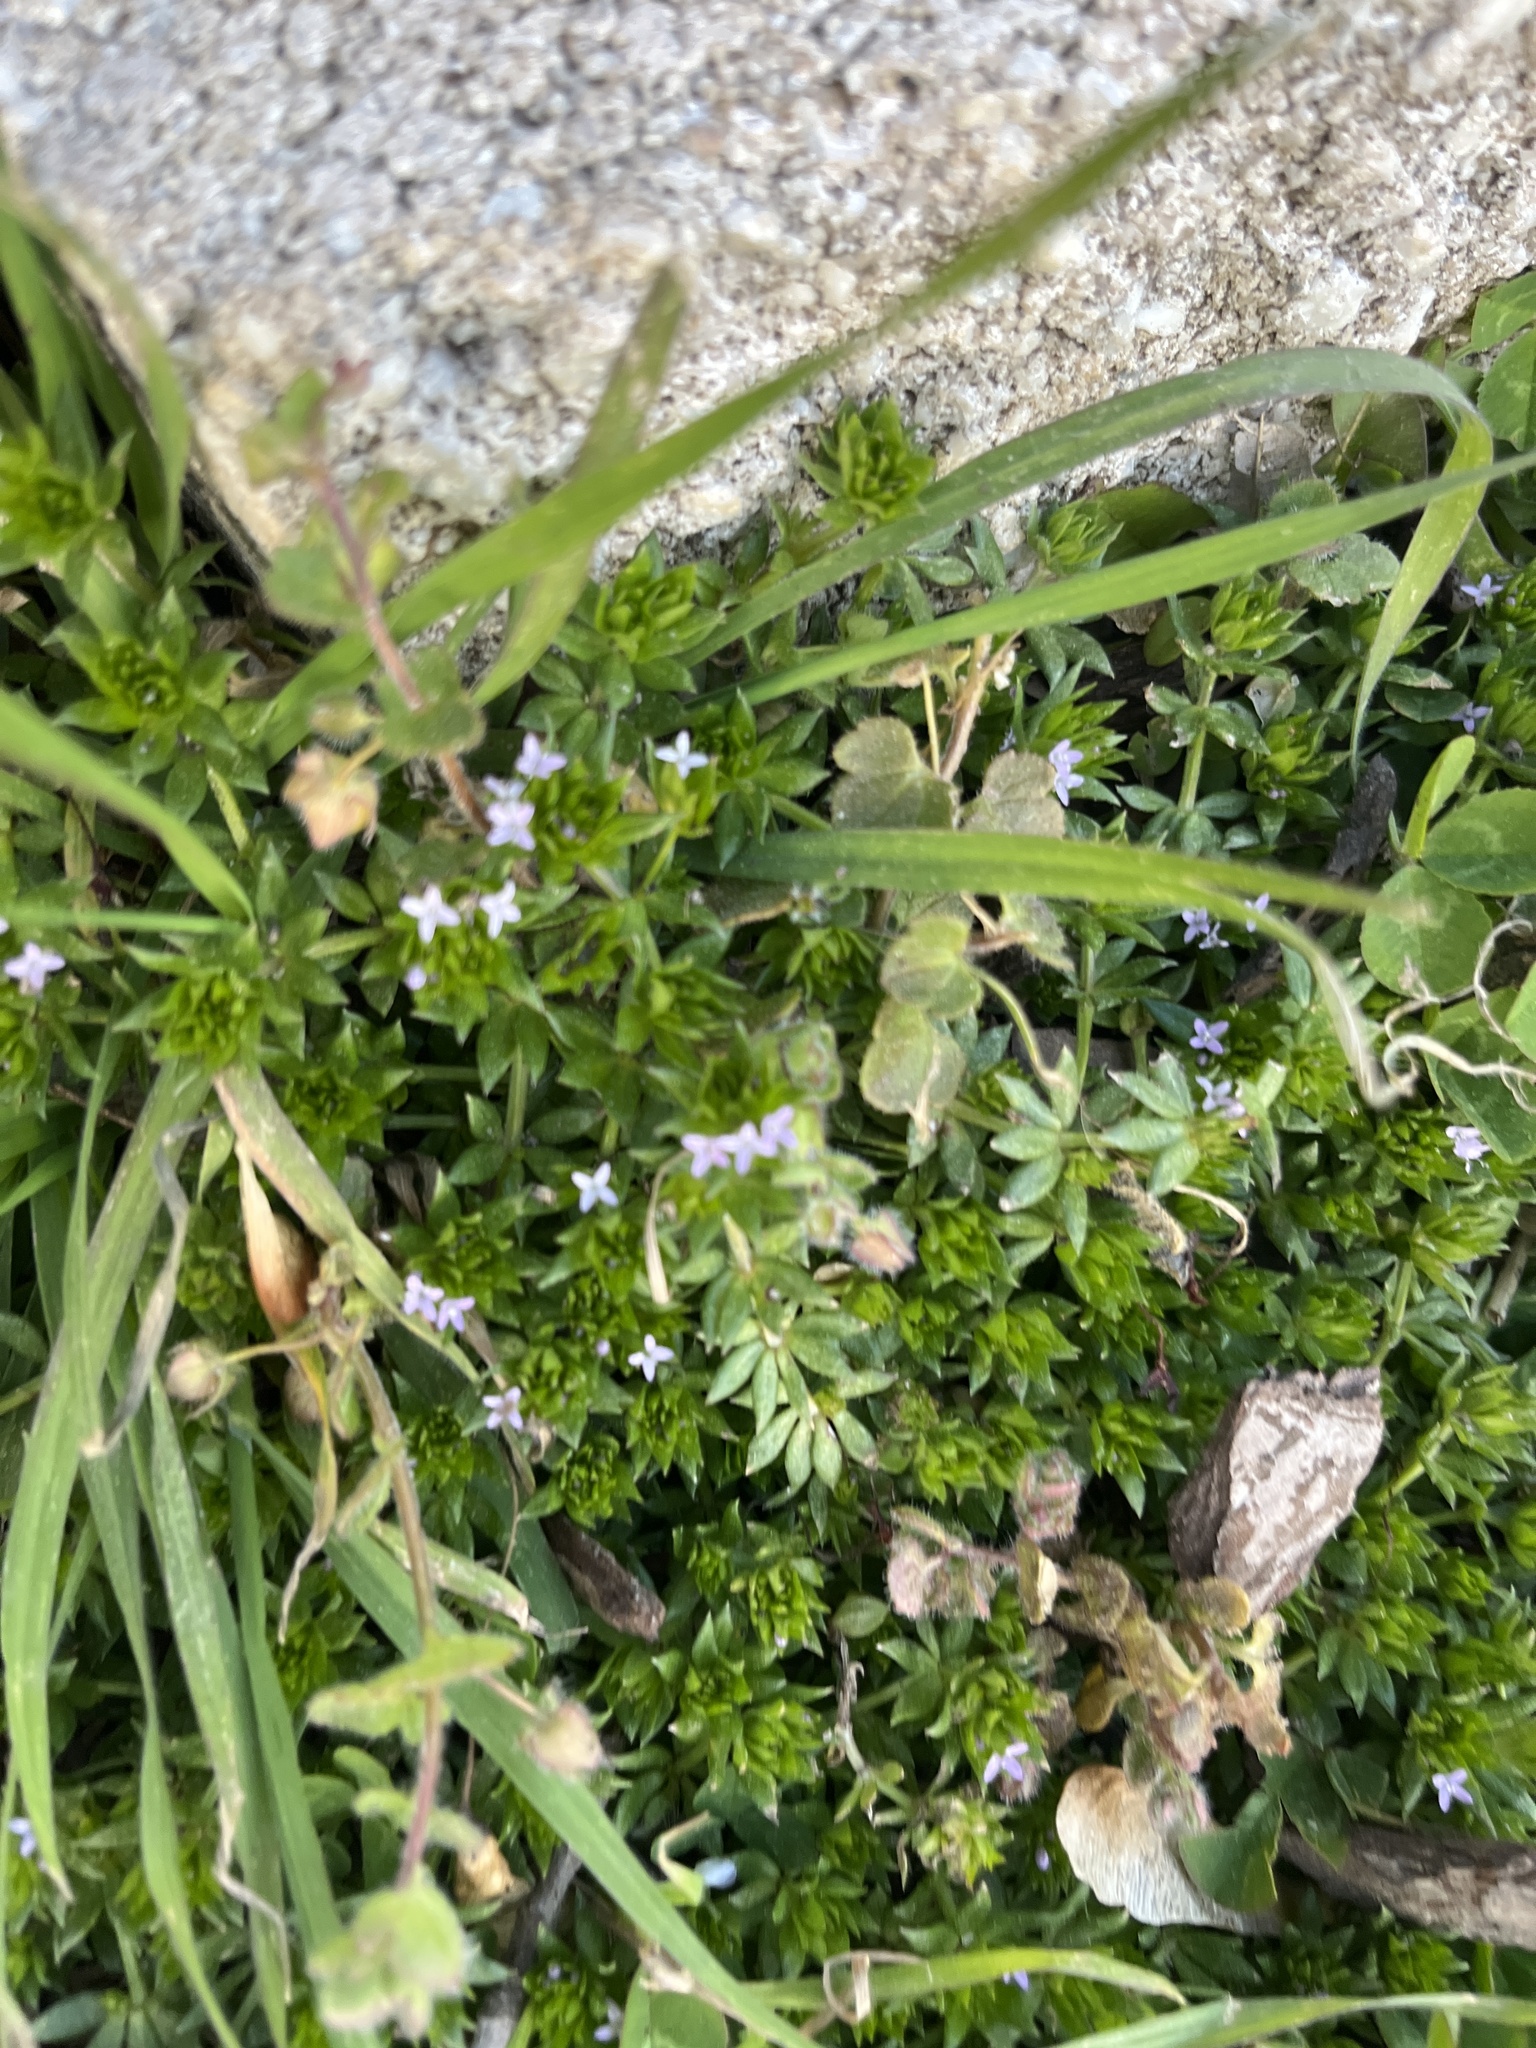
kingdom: Plantae
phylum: Tracheophyta
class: Magnoliopsida
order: Gentianales
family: Rubiaceae
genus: Sherardia
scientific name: Sherardia arvensis
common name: Field madder
